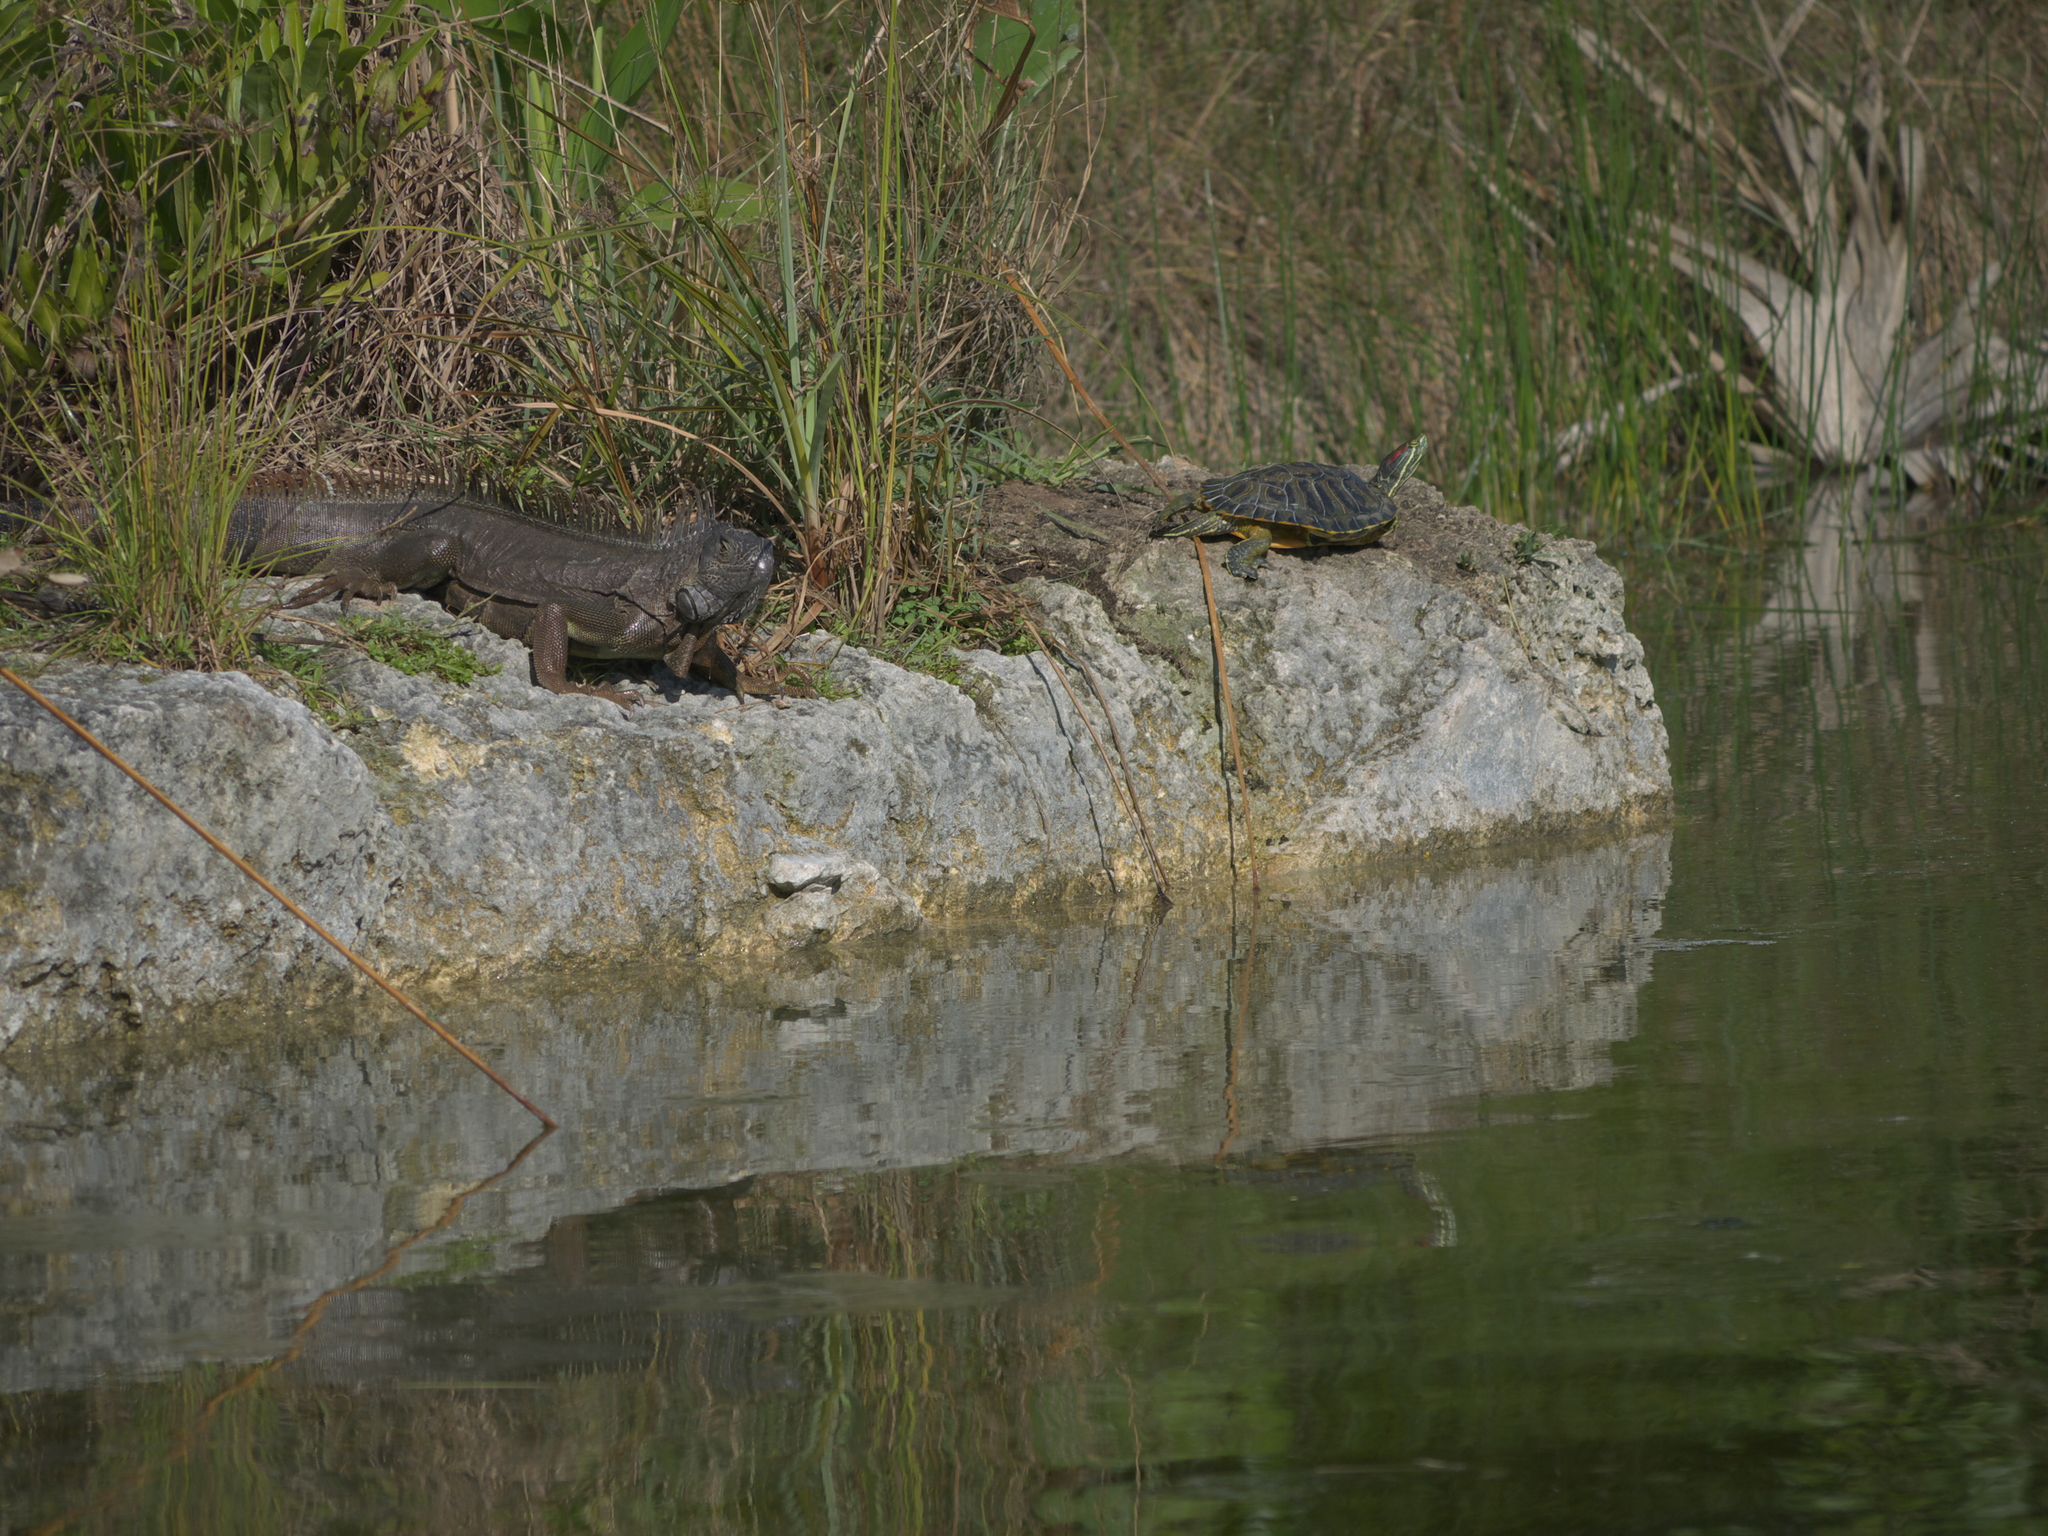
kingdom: Animalia
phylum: Chordata
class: Testudines
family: Emydidae
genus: Trachemys
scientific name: Trachemys scripta
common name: Slider
